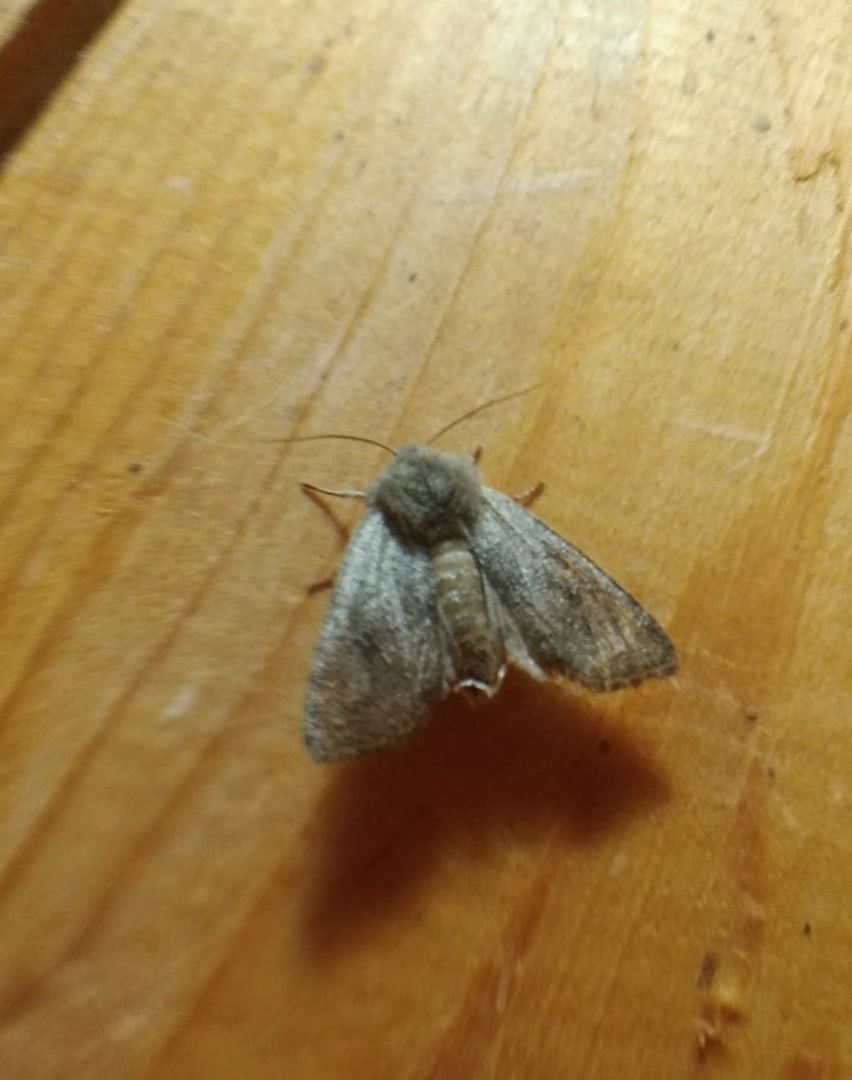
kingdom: Animalia
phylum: Arthropoda
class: Insecta
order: Lepidoptera
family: Noctuidae
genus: Orthosia
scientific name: Orthosia incerta
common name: Clouded drab
